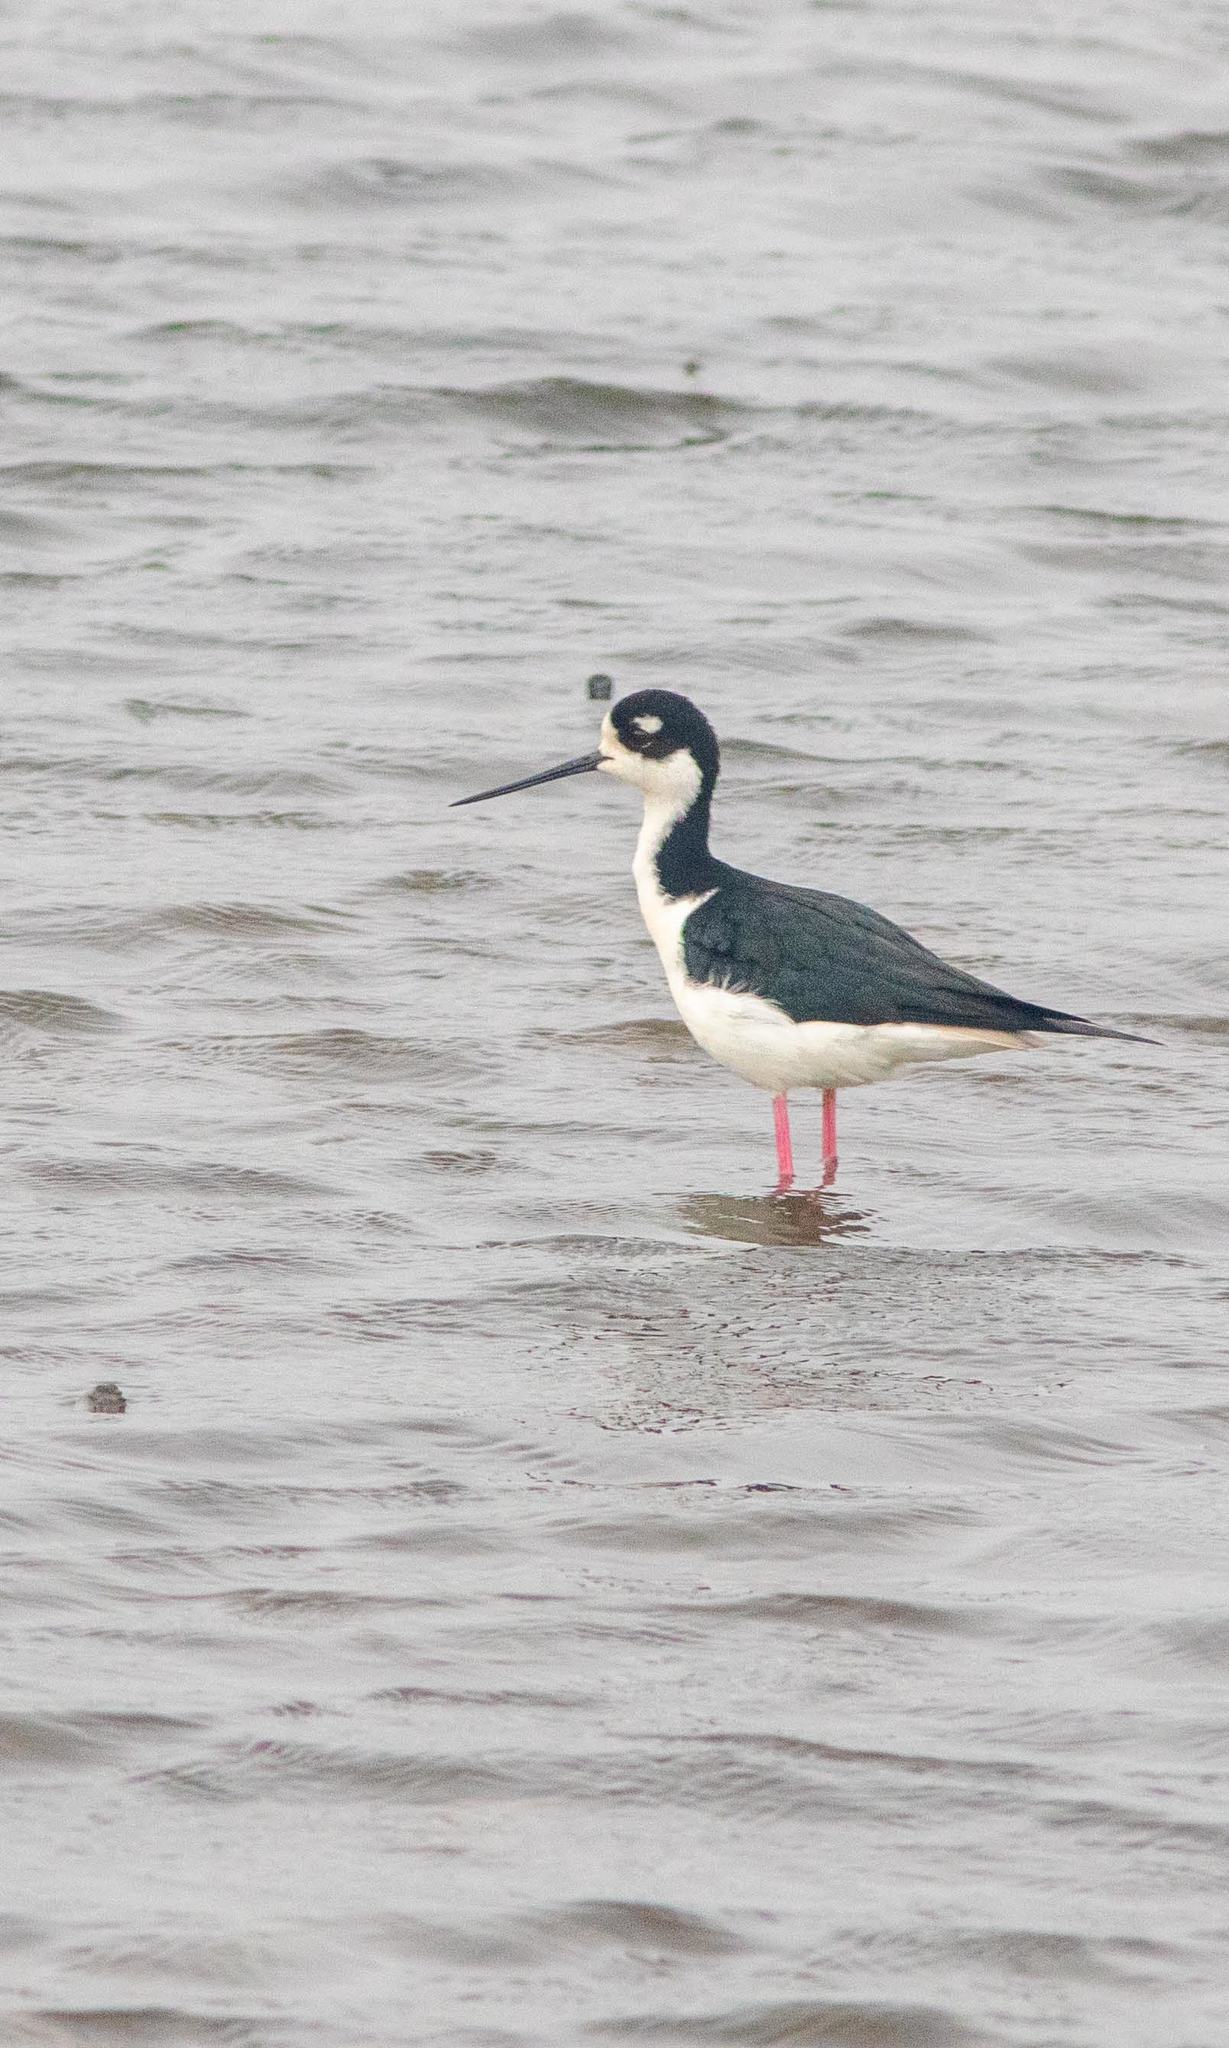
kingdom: Animalia
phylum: Chordata
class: Aves
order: Charadriiformes
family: Recurvirostridae
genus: Himantopus
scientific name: Himantopus mexicanus
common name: Black-necked stilt
